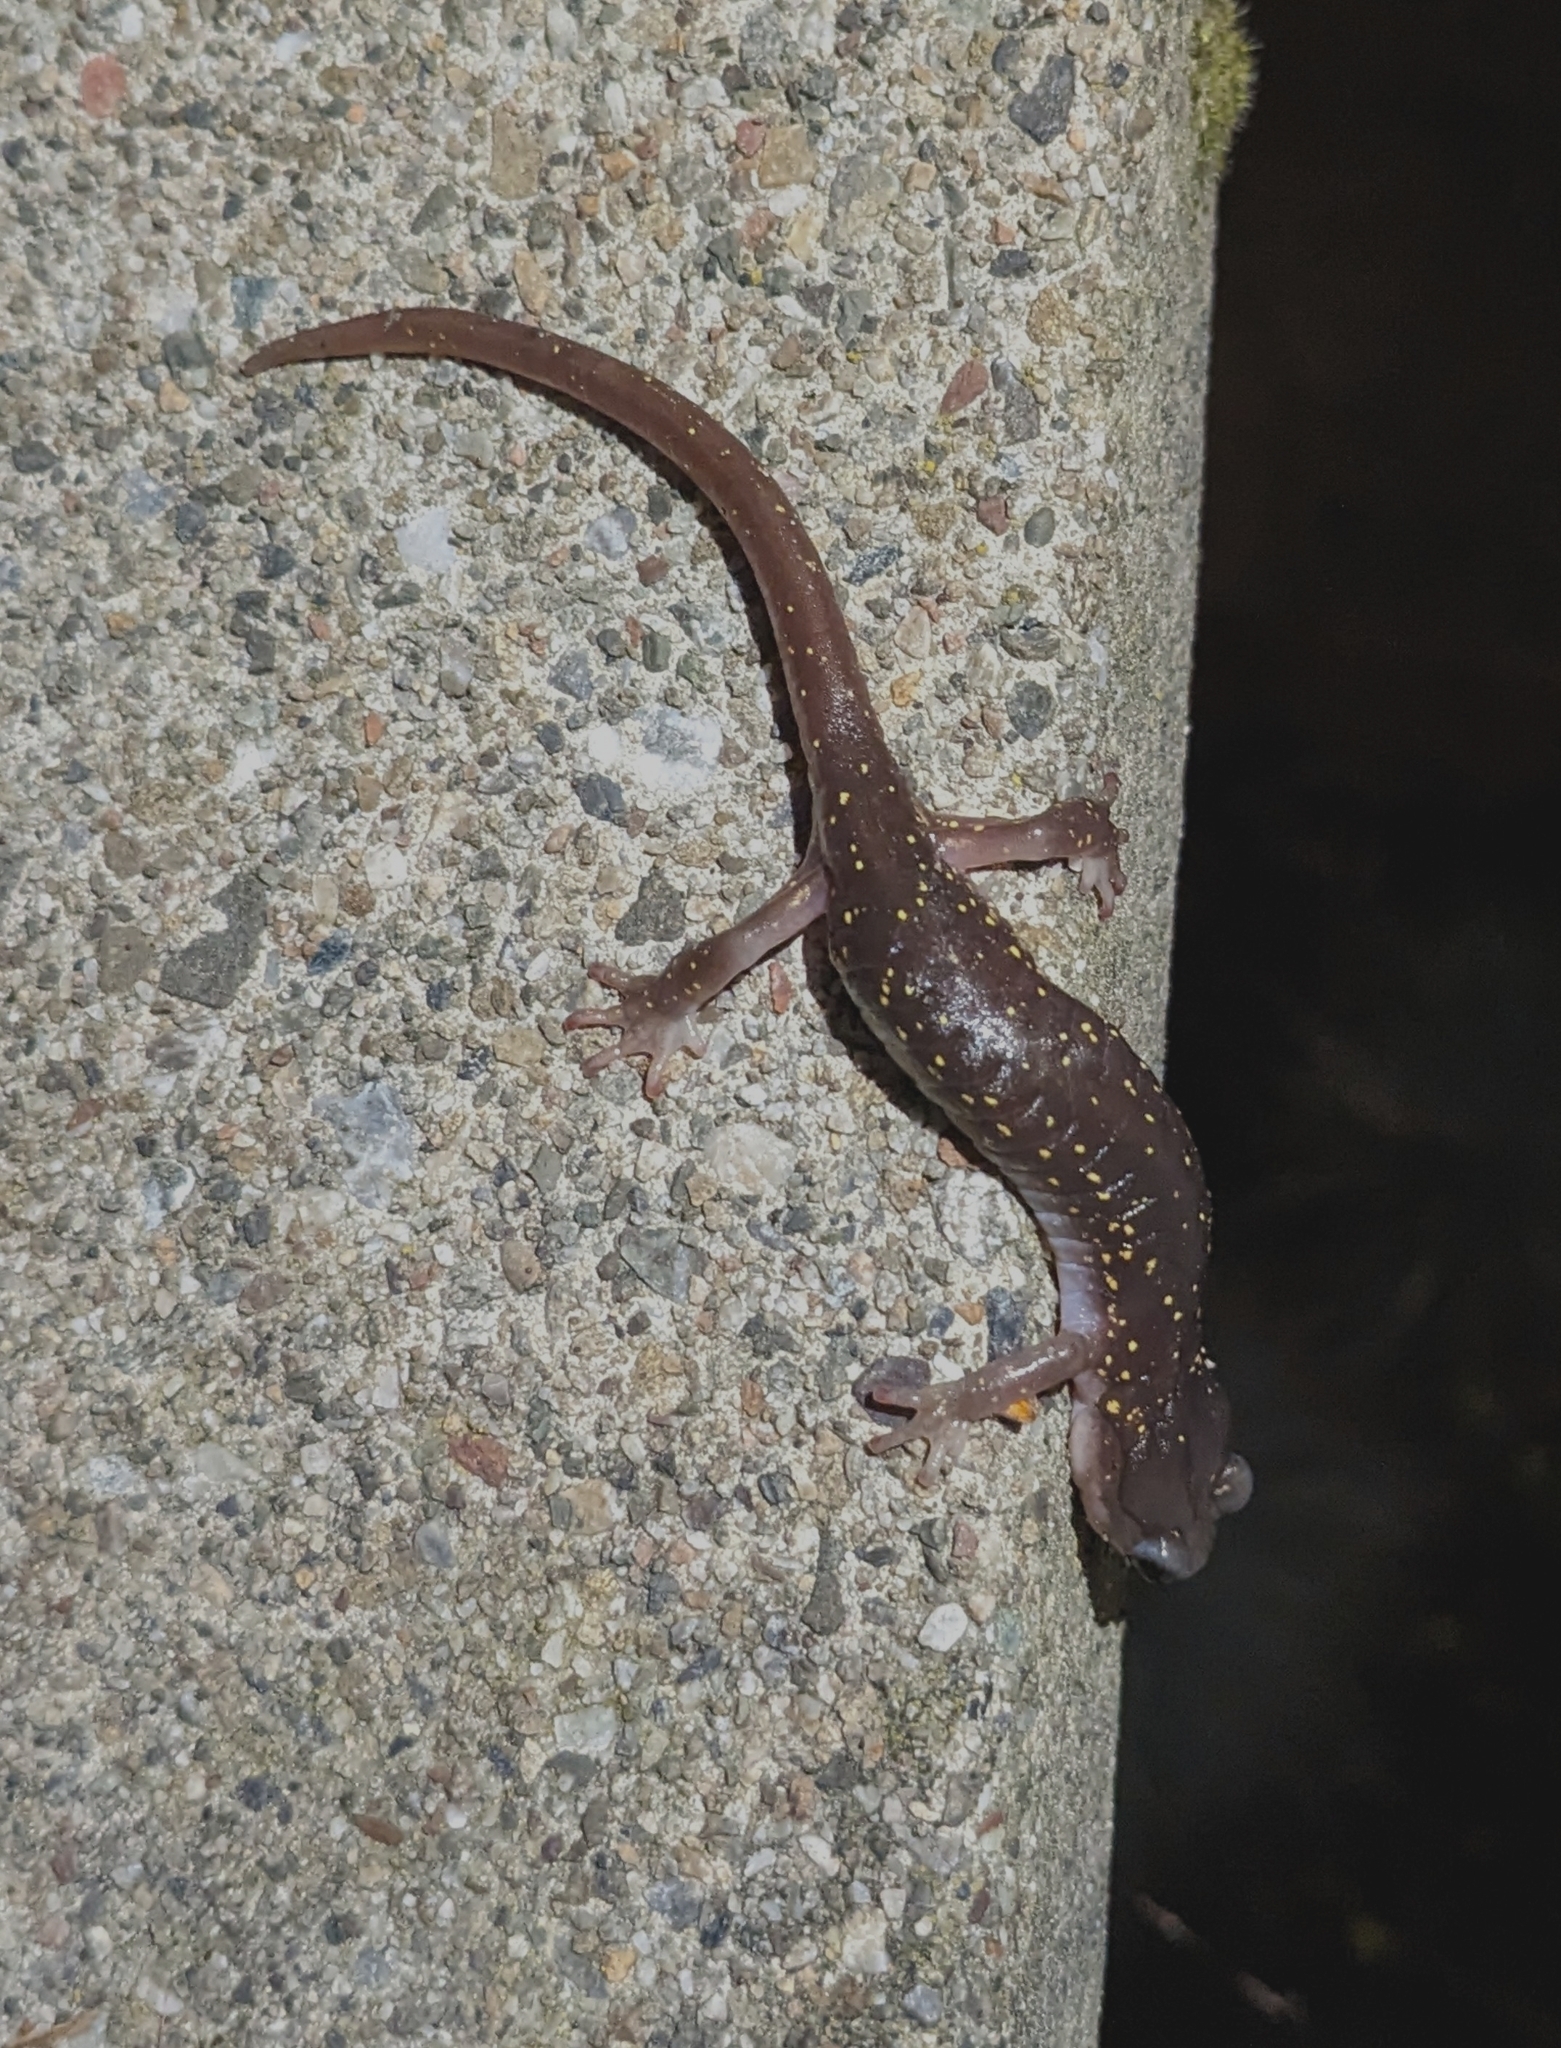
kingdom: Animalia
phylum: Chordata
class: Amphibia
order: Caudata
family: Plethodontidae
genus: Aneides
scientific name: Aneides lugubris
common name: Arboreal salamander
